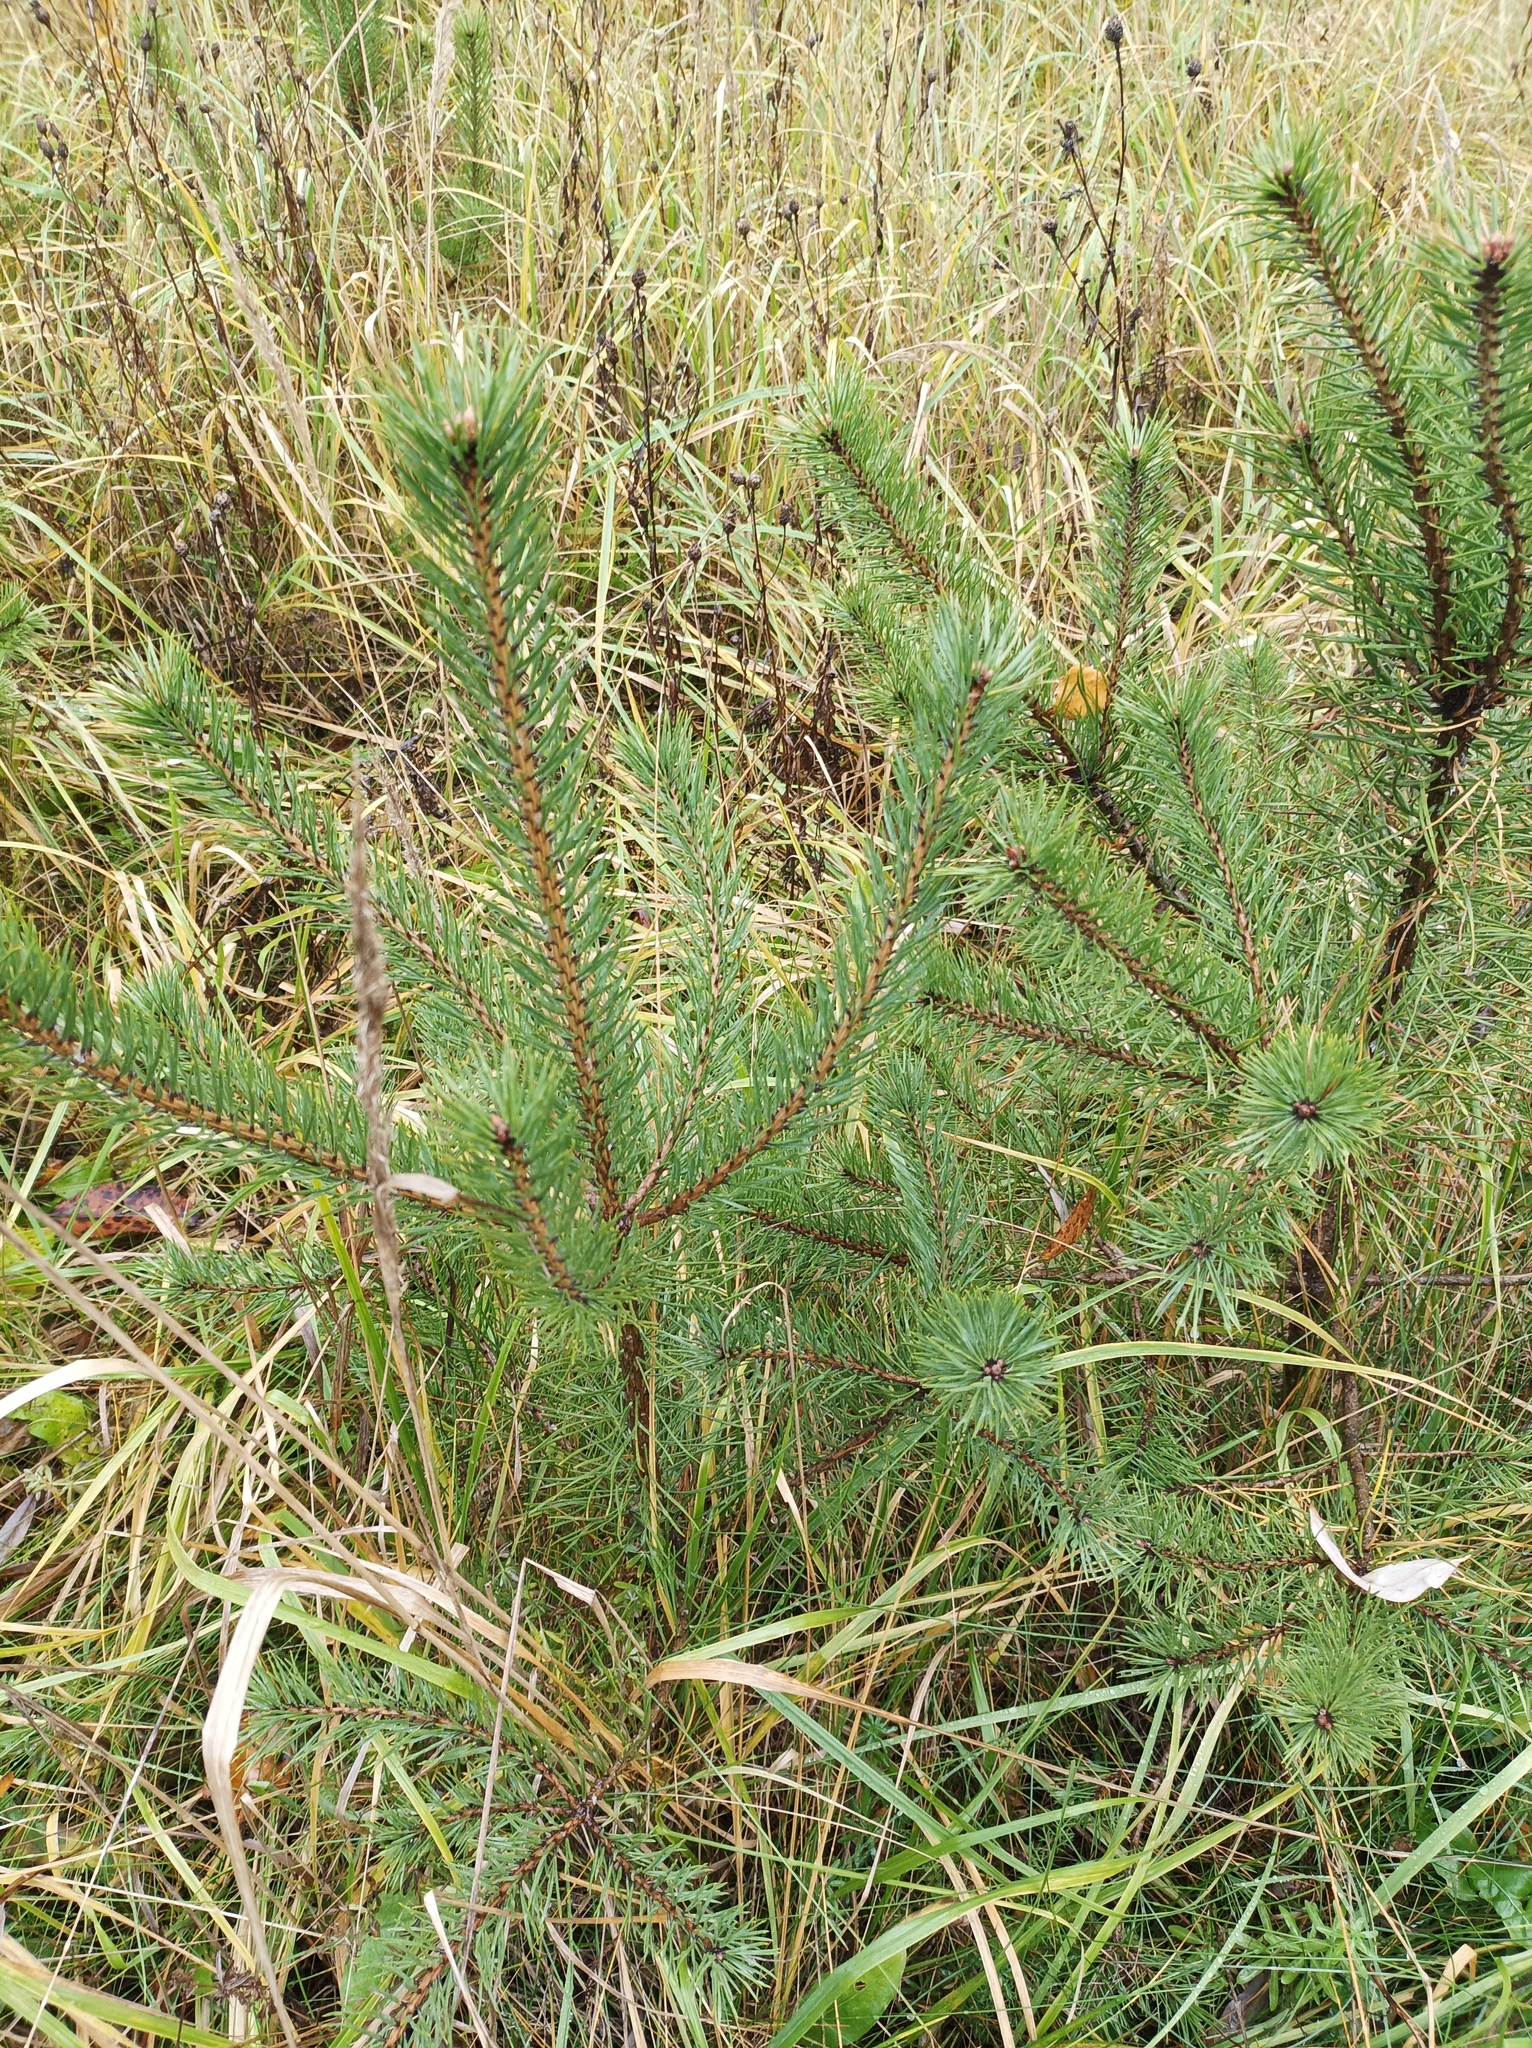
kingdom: Plantae
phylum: Tracheophyta
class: Pinopsida
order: Pinales
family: Pinaceae
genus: Pinus
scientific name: Pinus sylvestris
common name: Scots pine
